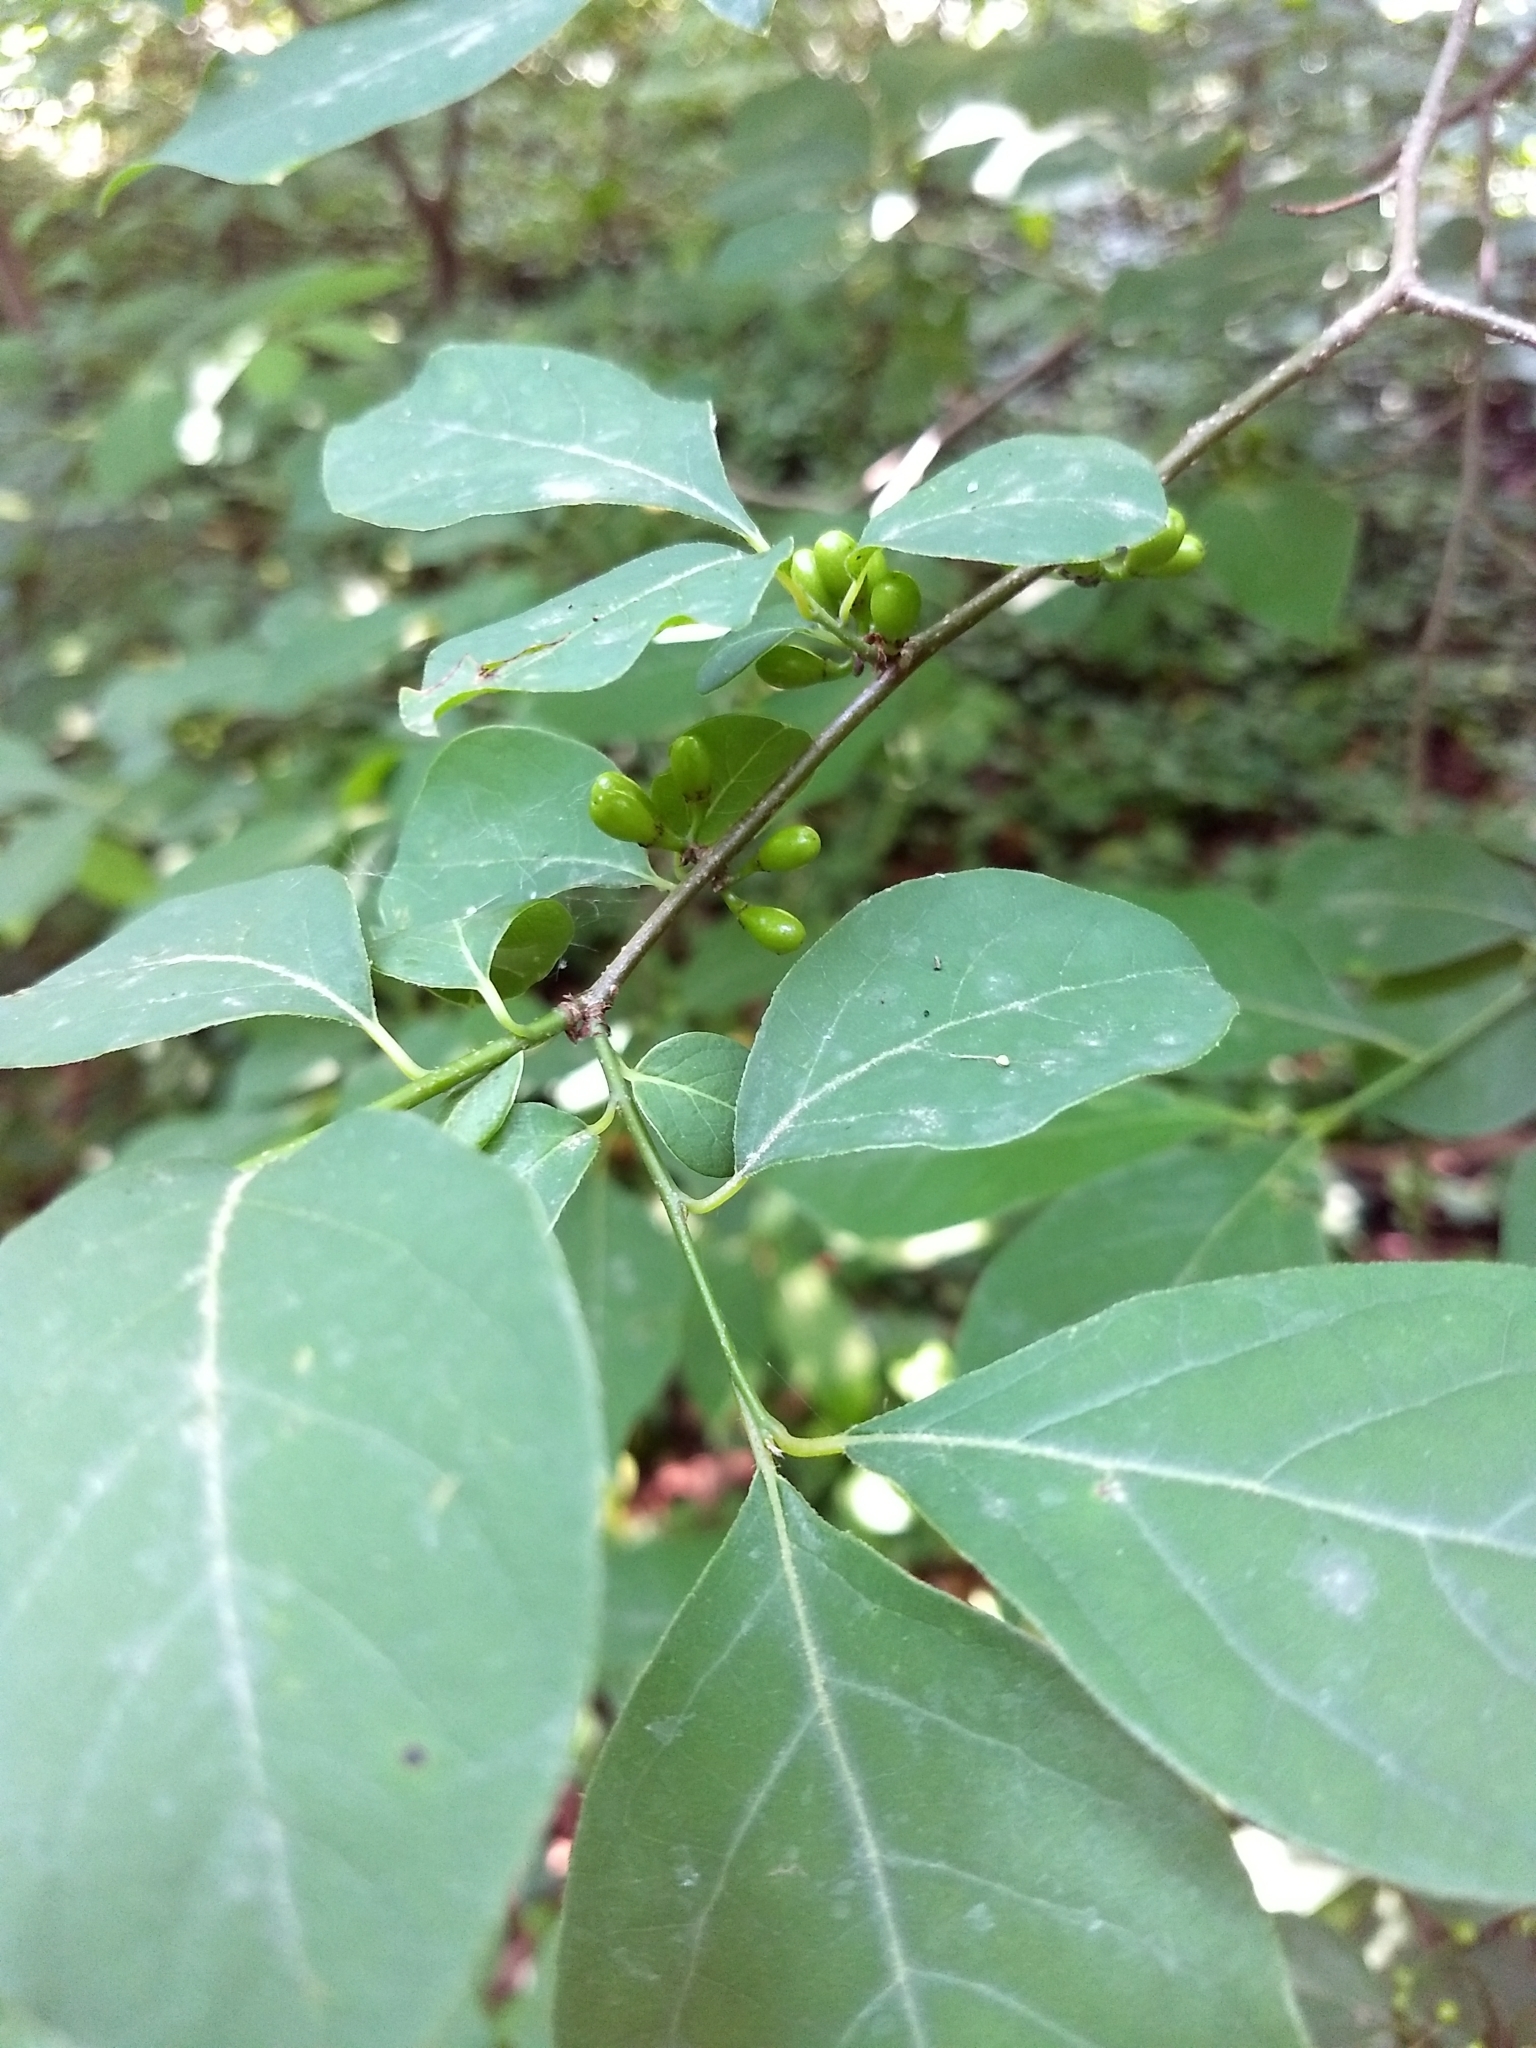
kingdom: Plantae
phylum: Tracheophyta
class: Magnoliopsida
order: Laurales
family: Lauraceae
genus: Lindera
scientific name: Lindera benzoin
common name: Spicebush
